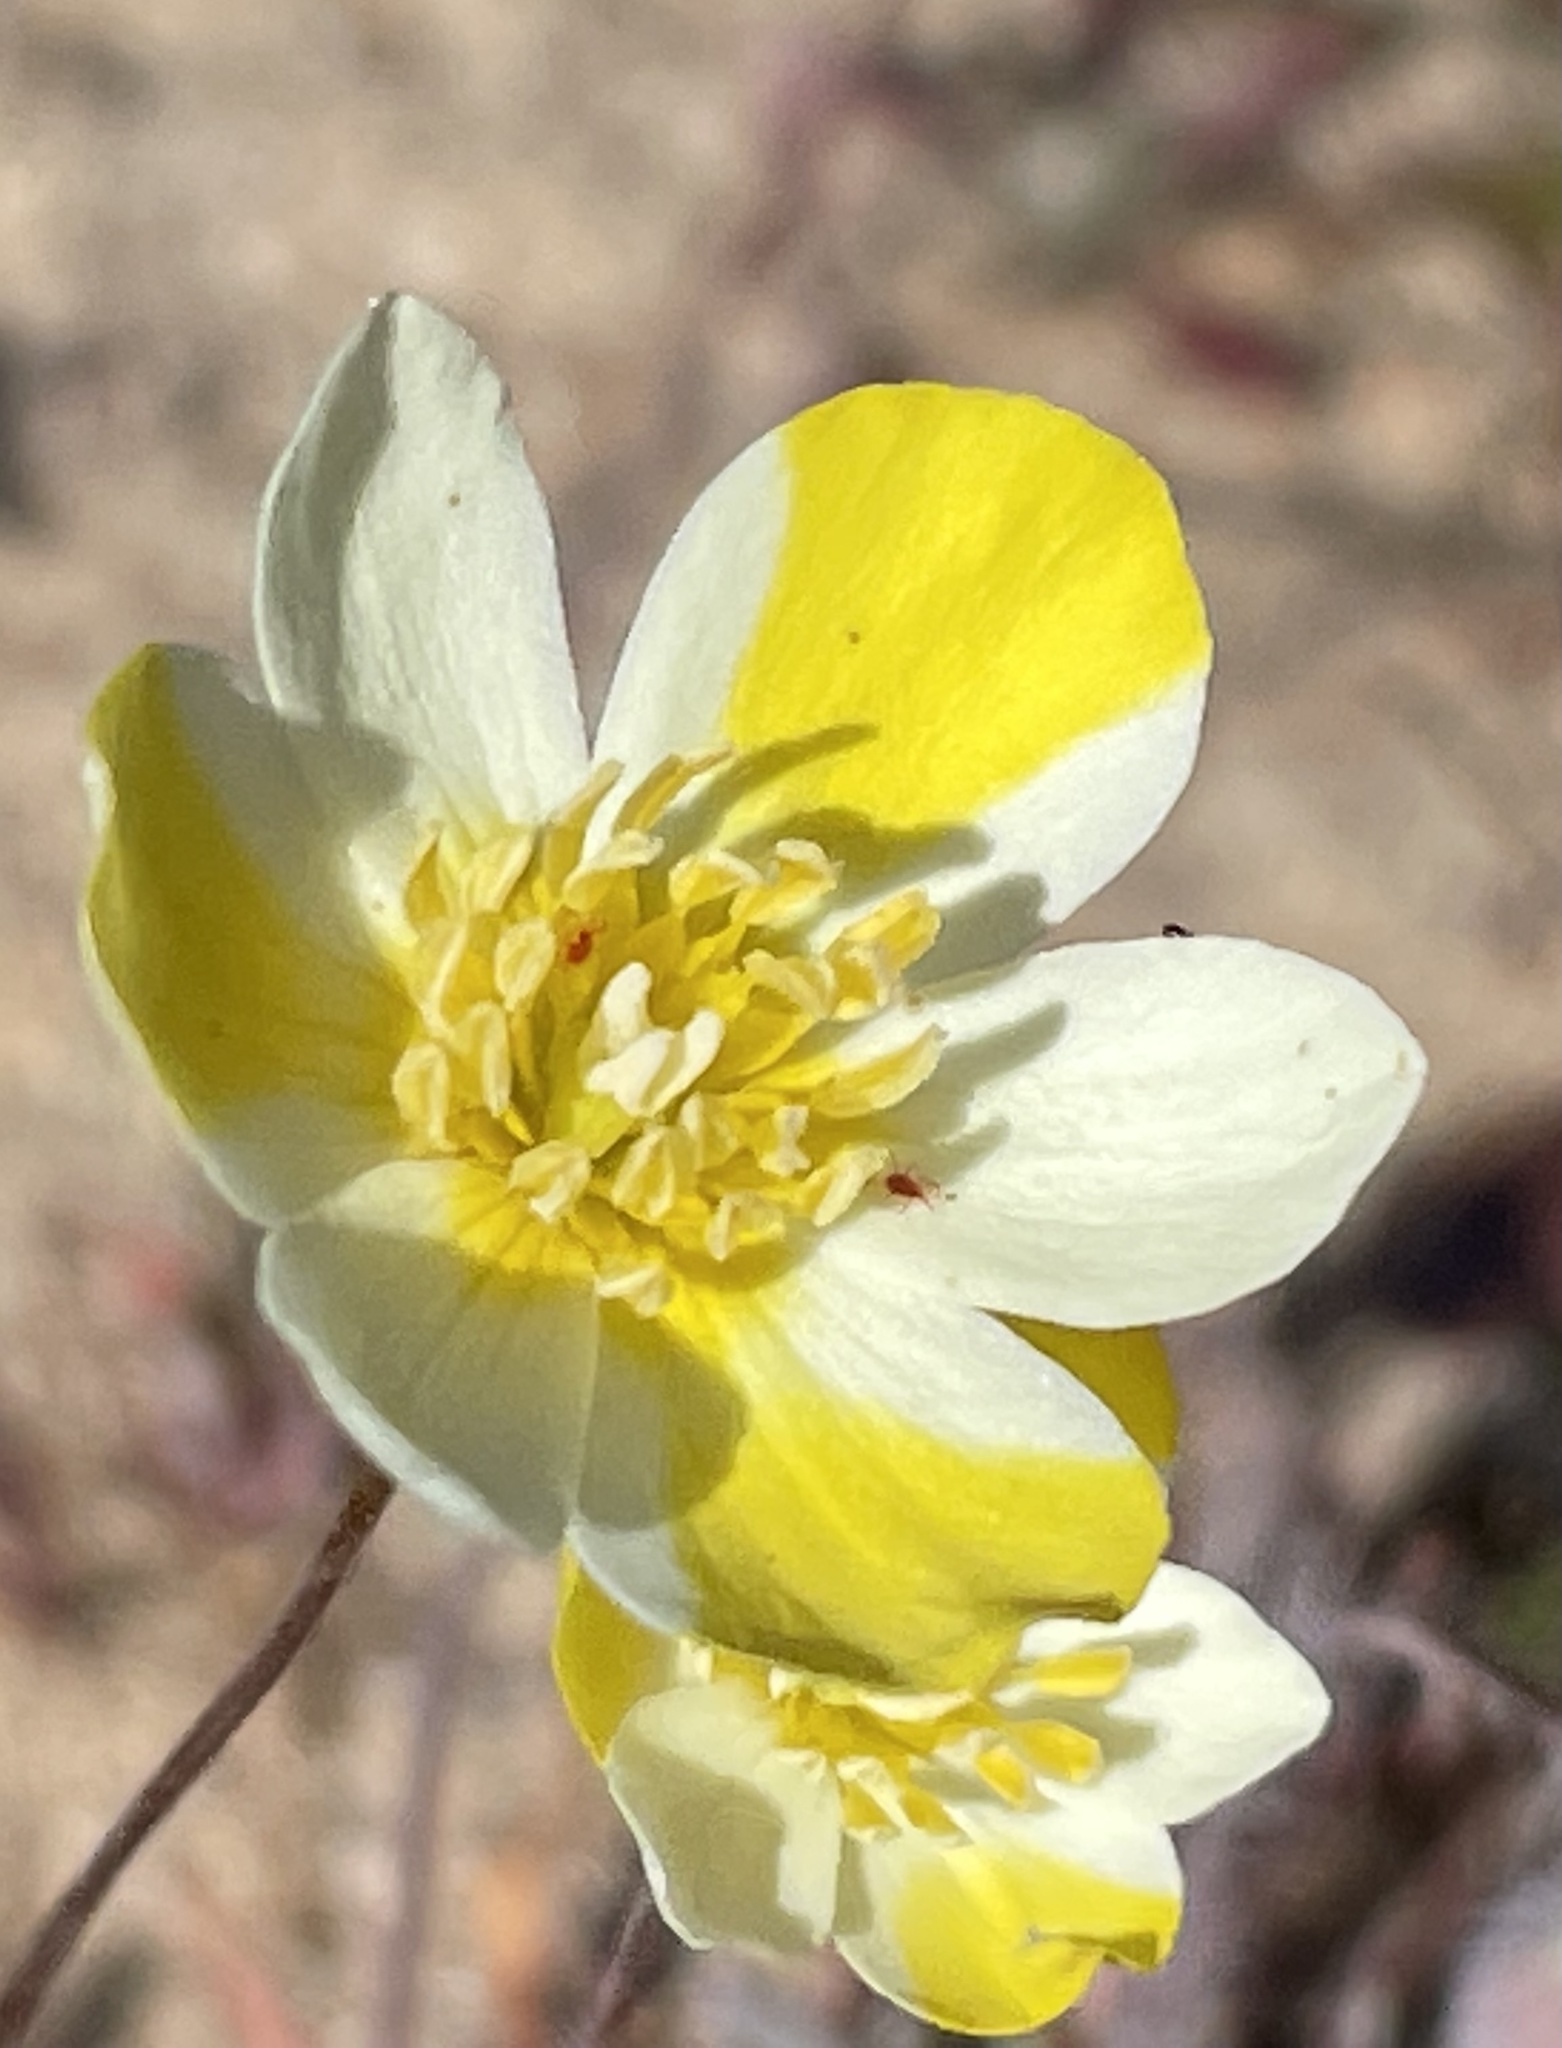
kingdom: Plantae
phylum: Tracheophyta
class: Magnoliopsida
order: Ranunculales
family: Papaveraceae
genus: Platystigma
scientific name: Platystigma lineare
